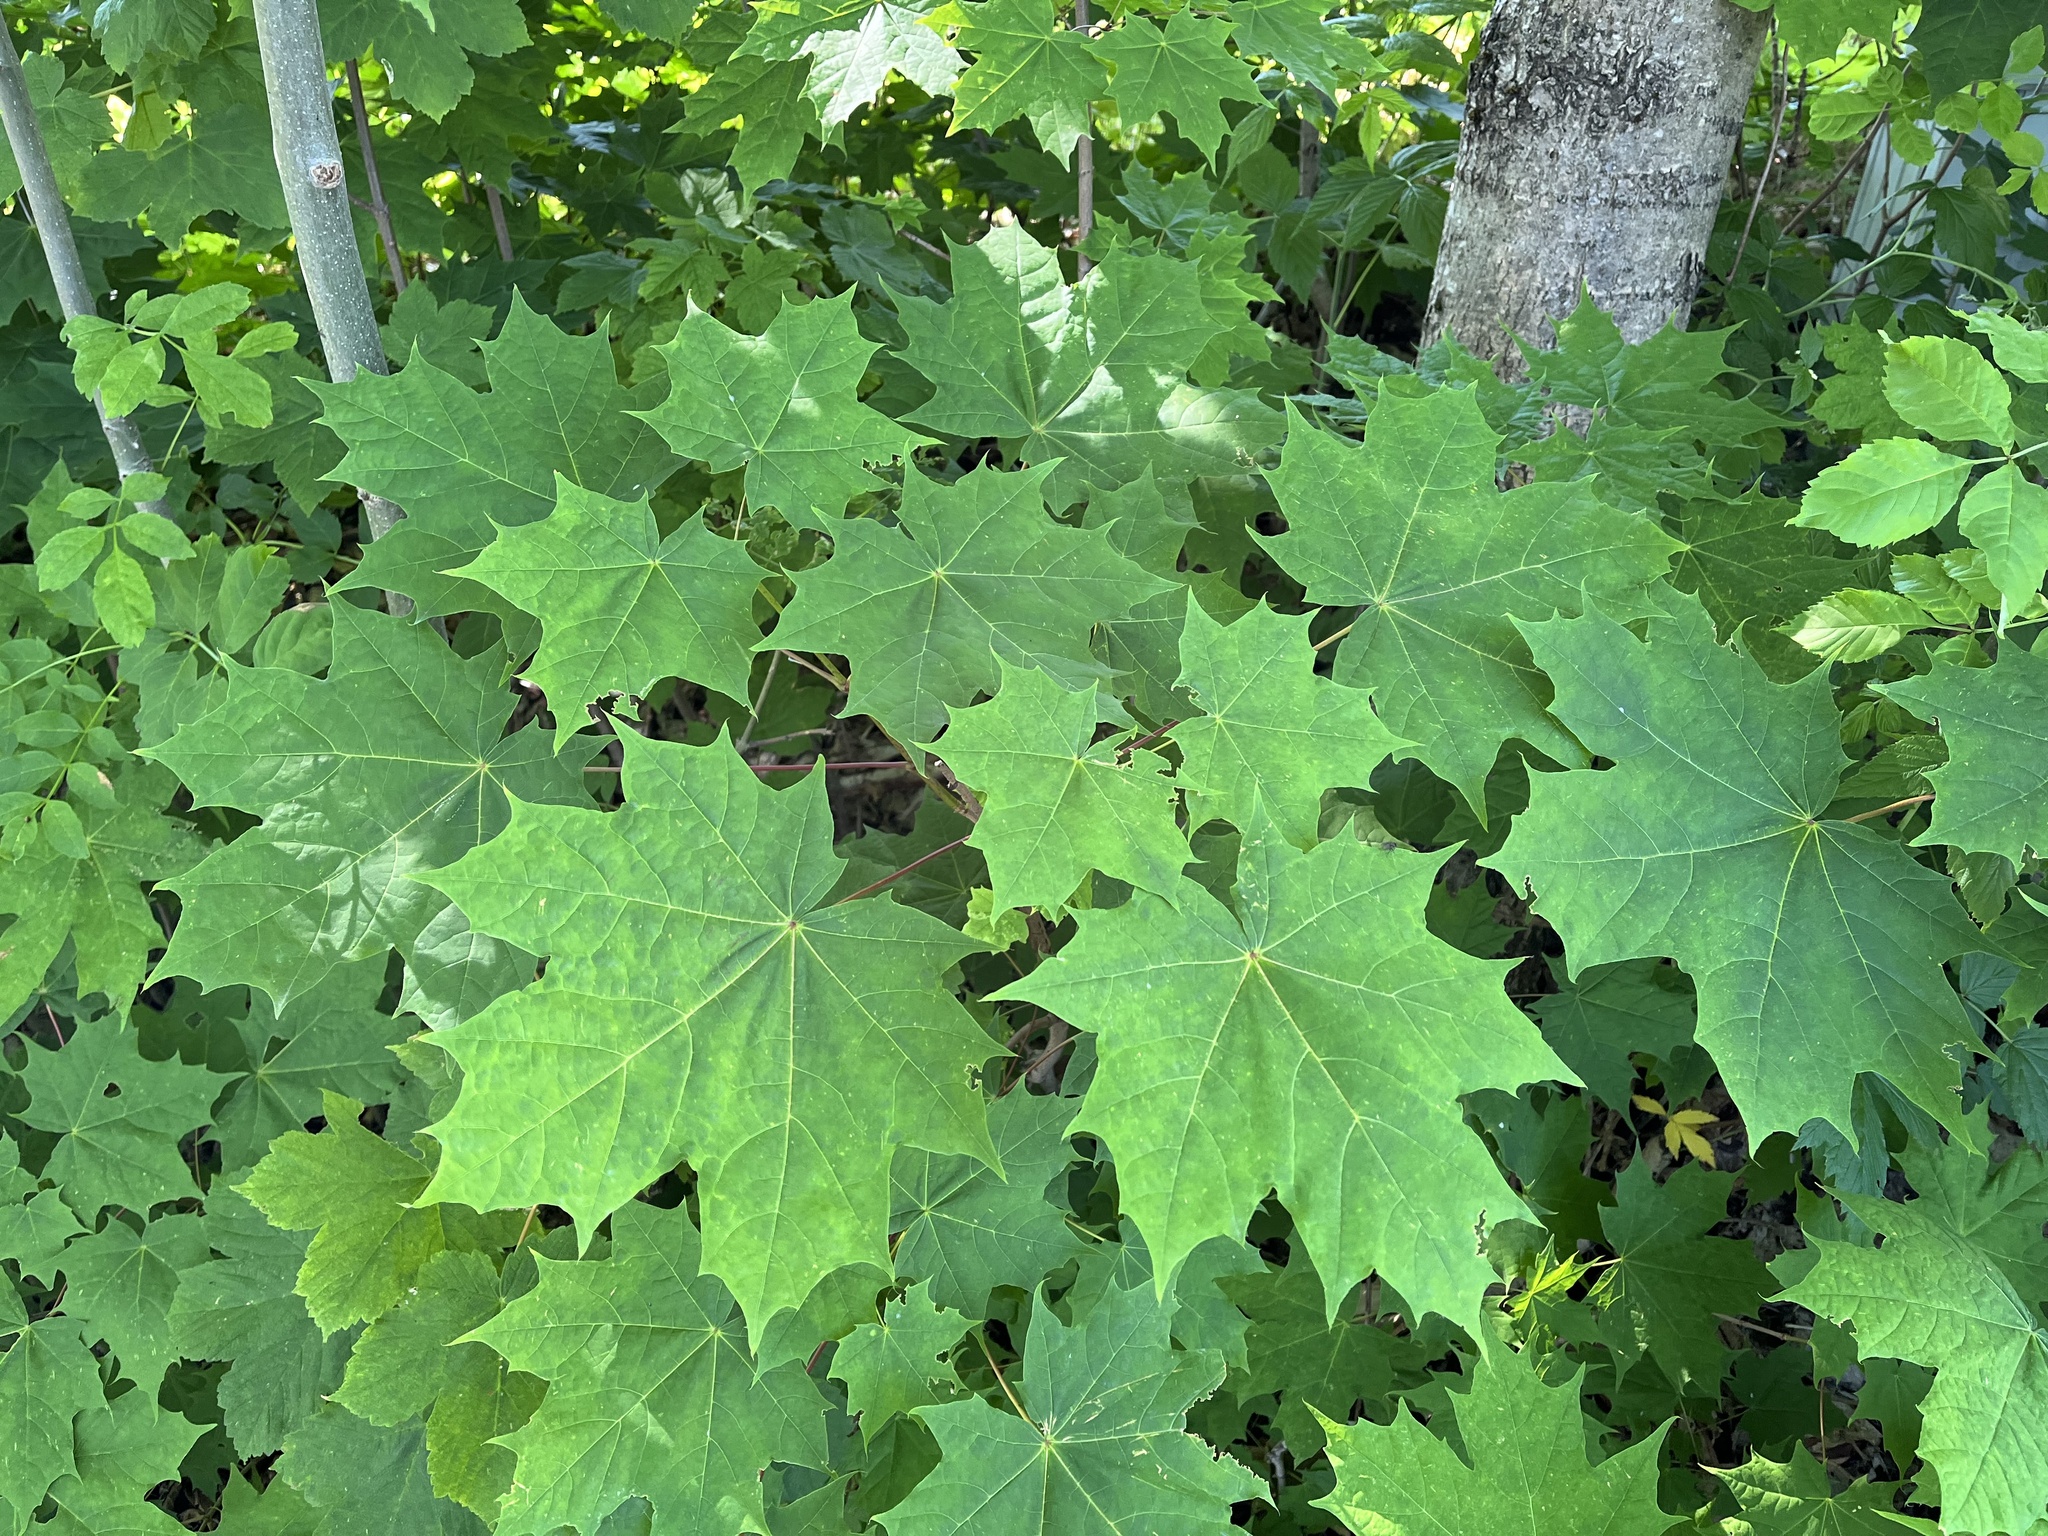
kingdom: Plantae
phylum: Tracheophyta
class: Magnoliopsida
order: Sapindales
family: Sapindaceae
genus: Acer
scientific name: Acer platanoides
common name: Norway maple
